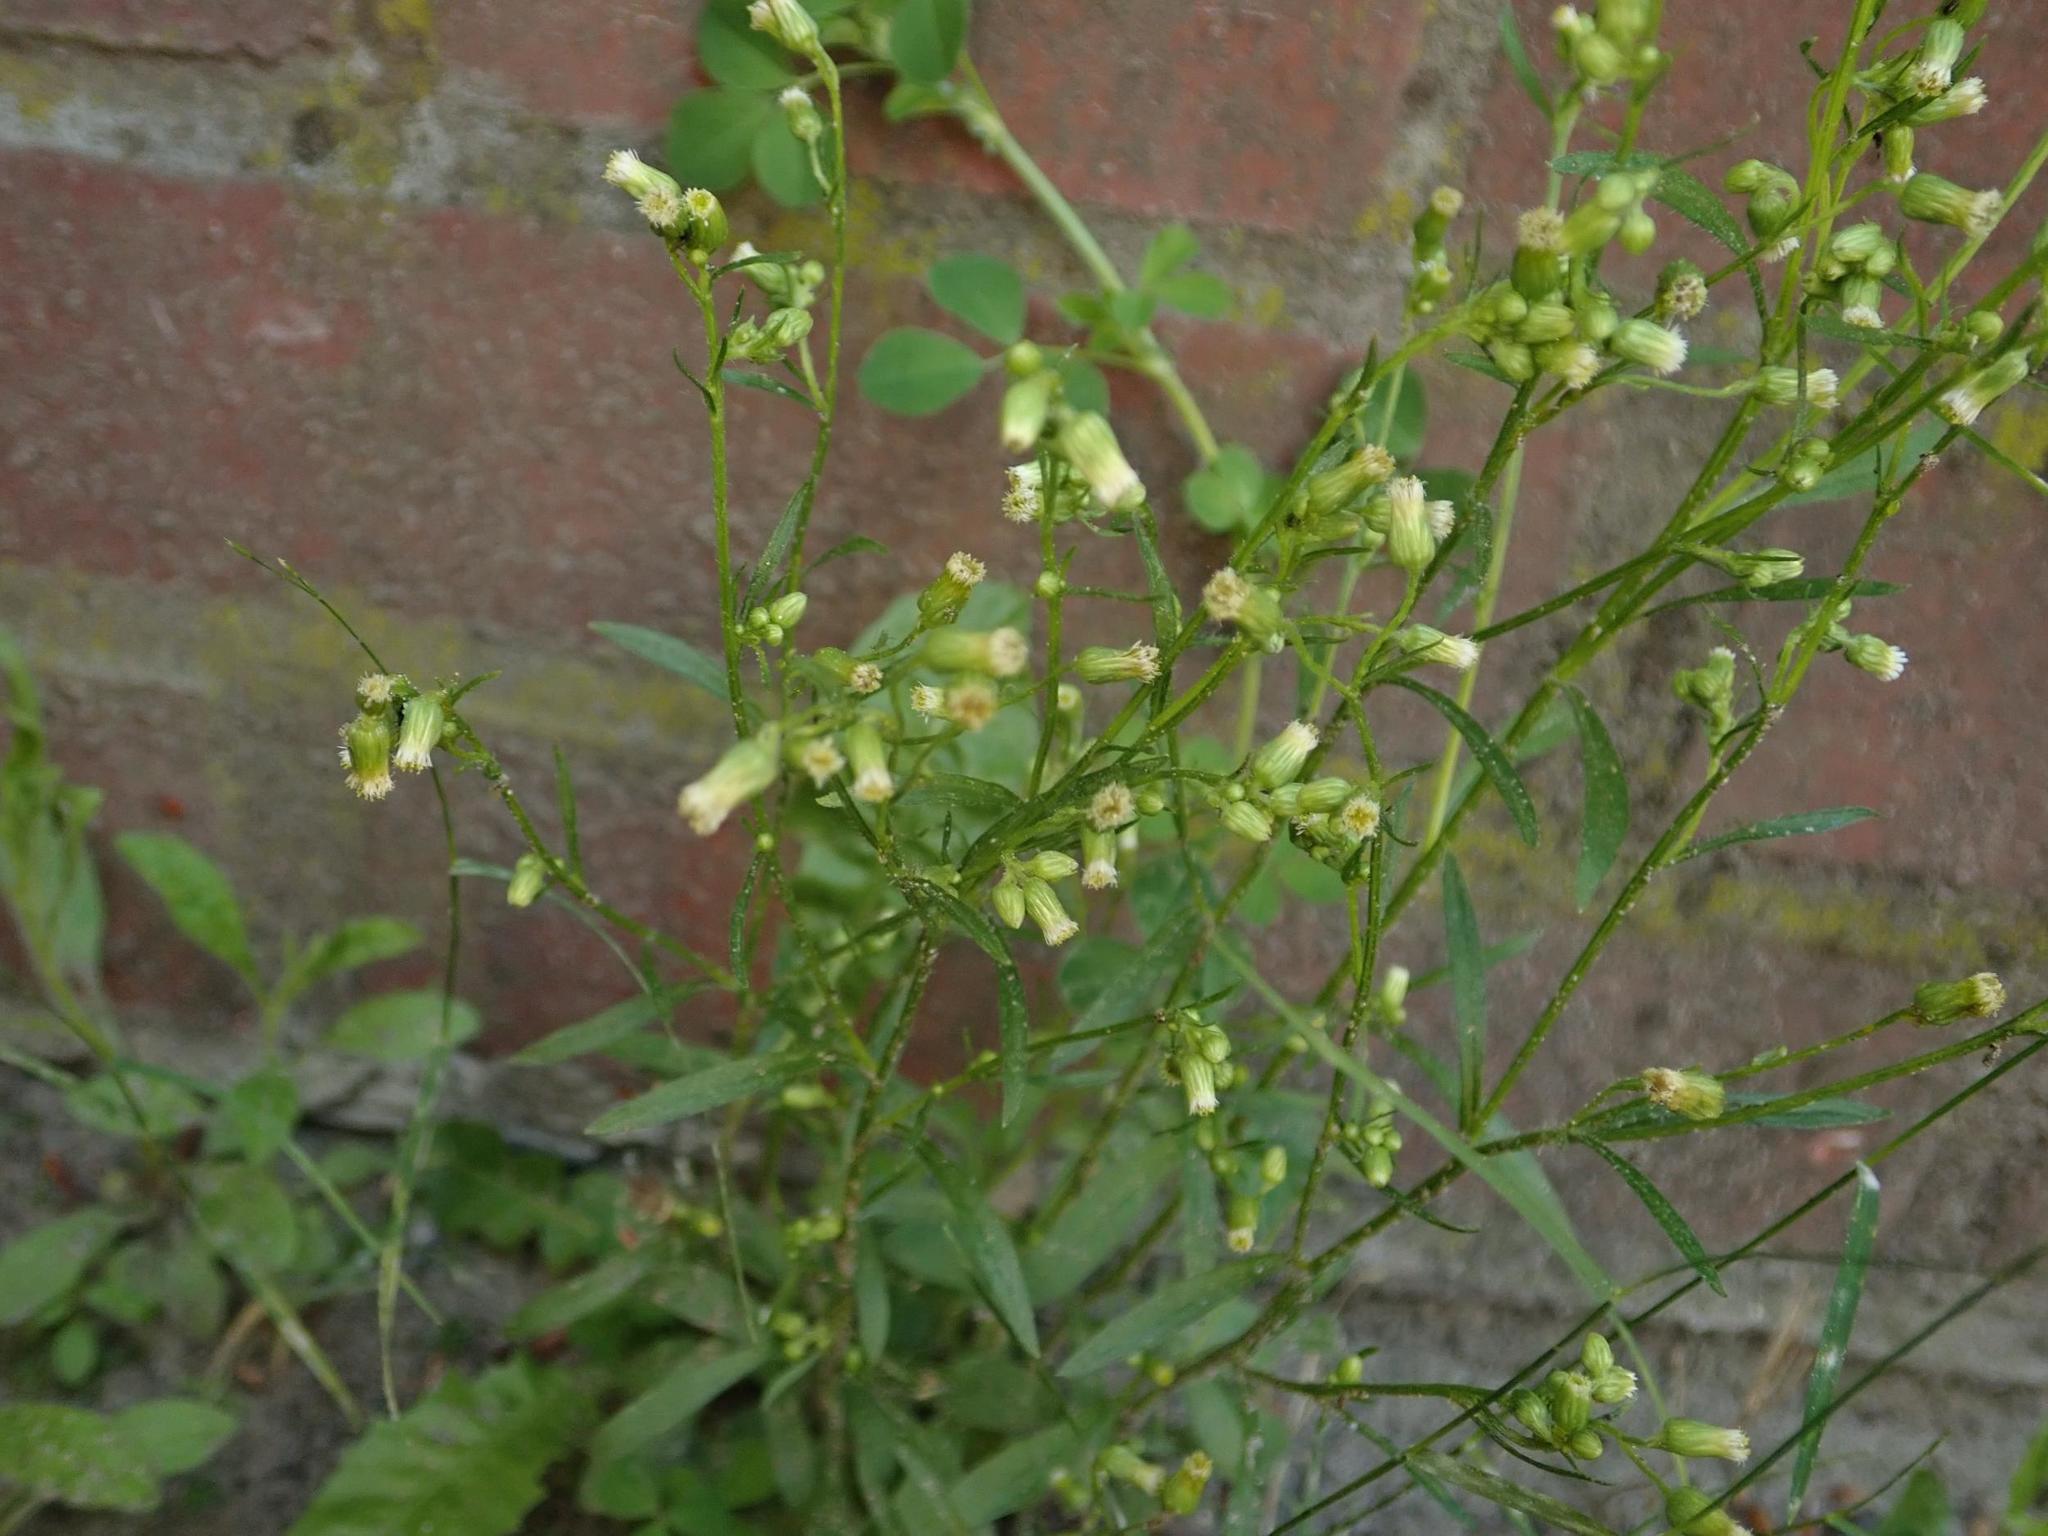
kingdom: Plantae
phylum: Tracheophyta
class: Magnoliopsida
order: Asterales
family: Asteraceae
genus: Erigeron
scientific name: Erigeron canadensis
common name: Canadian fleabane
